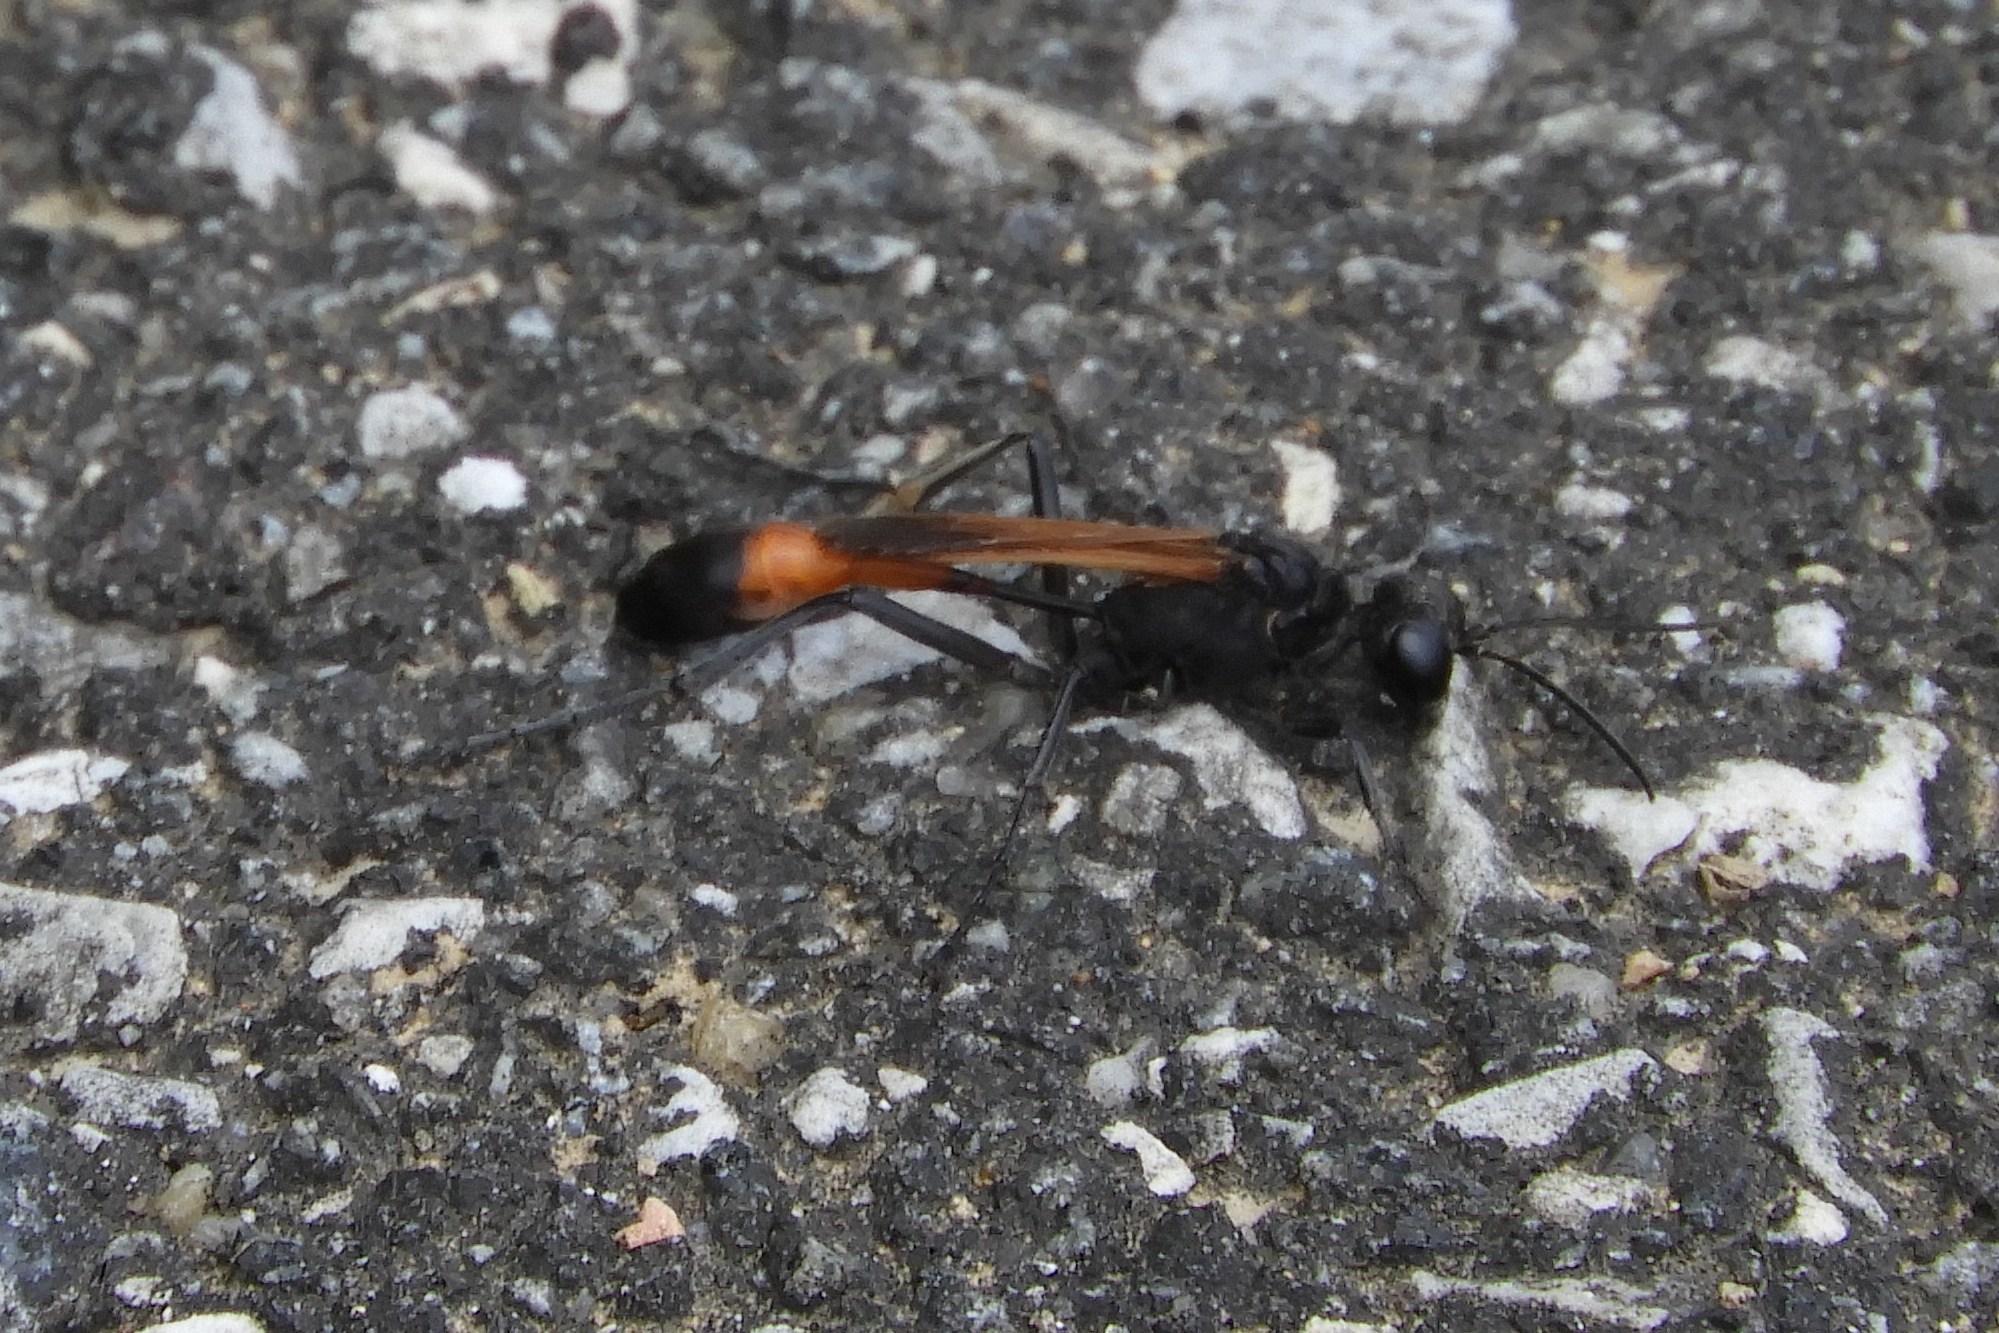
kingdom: Animalia
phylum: Arthropoda
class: Insecta
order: Hymenoptera
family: Sphecidae
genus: Ammophila
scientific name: Ammophila pictipennis
